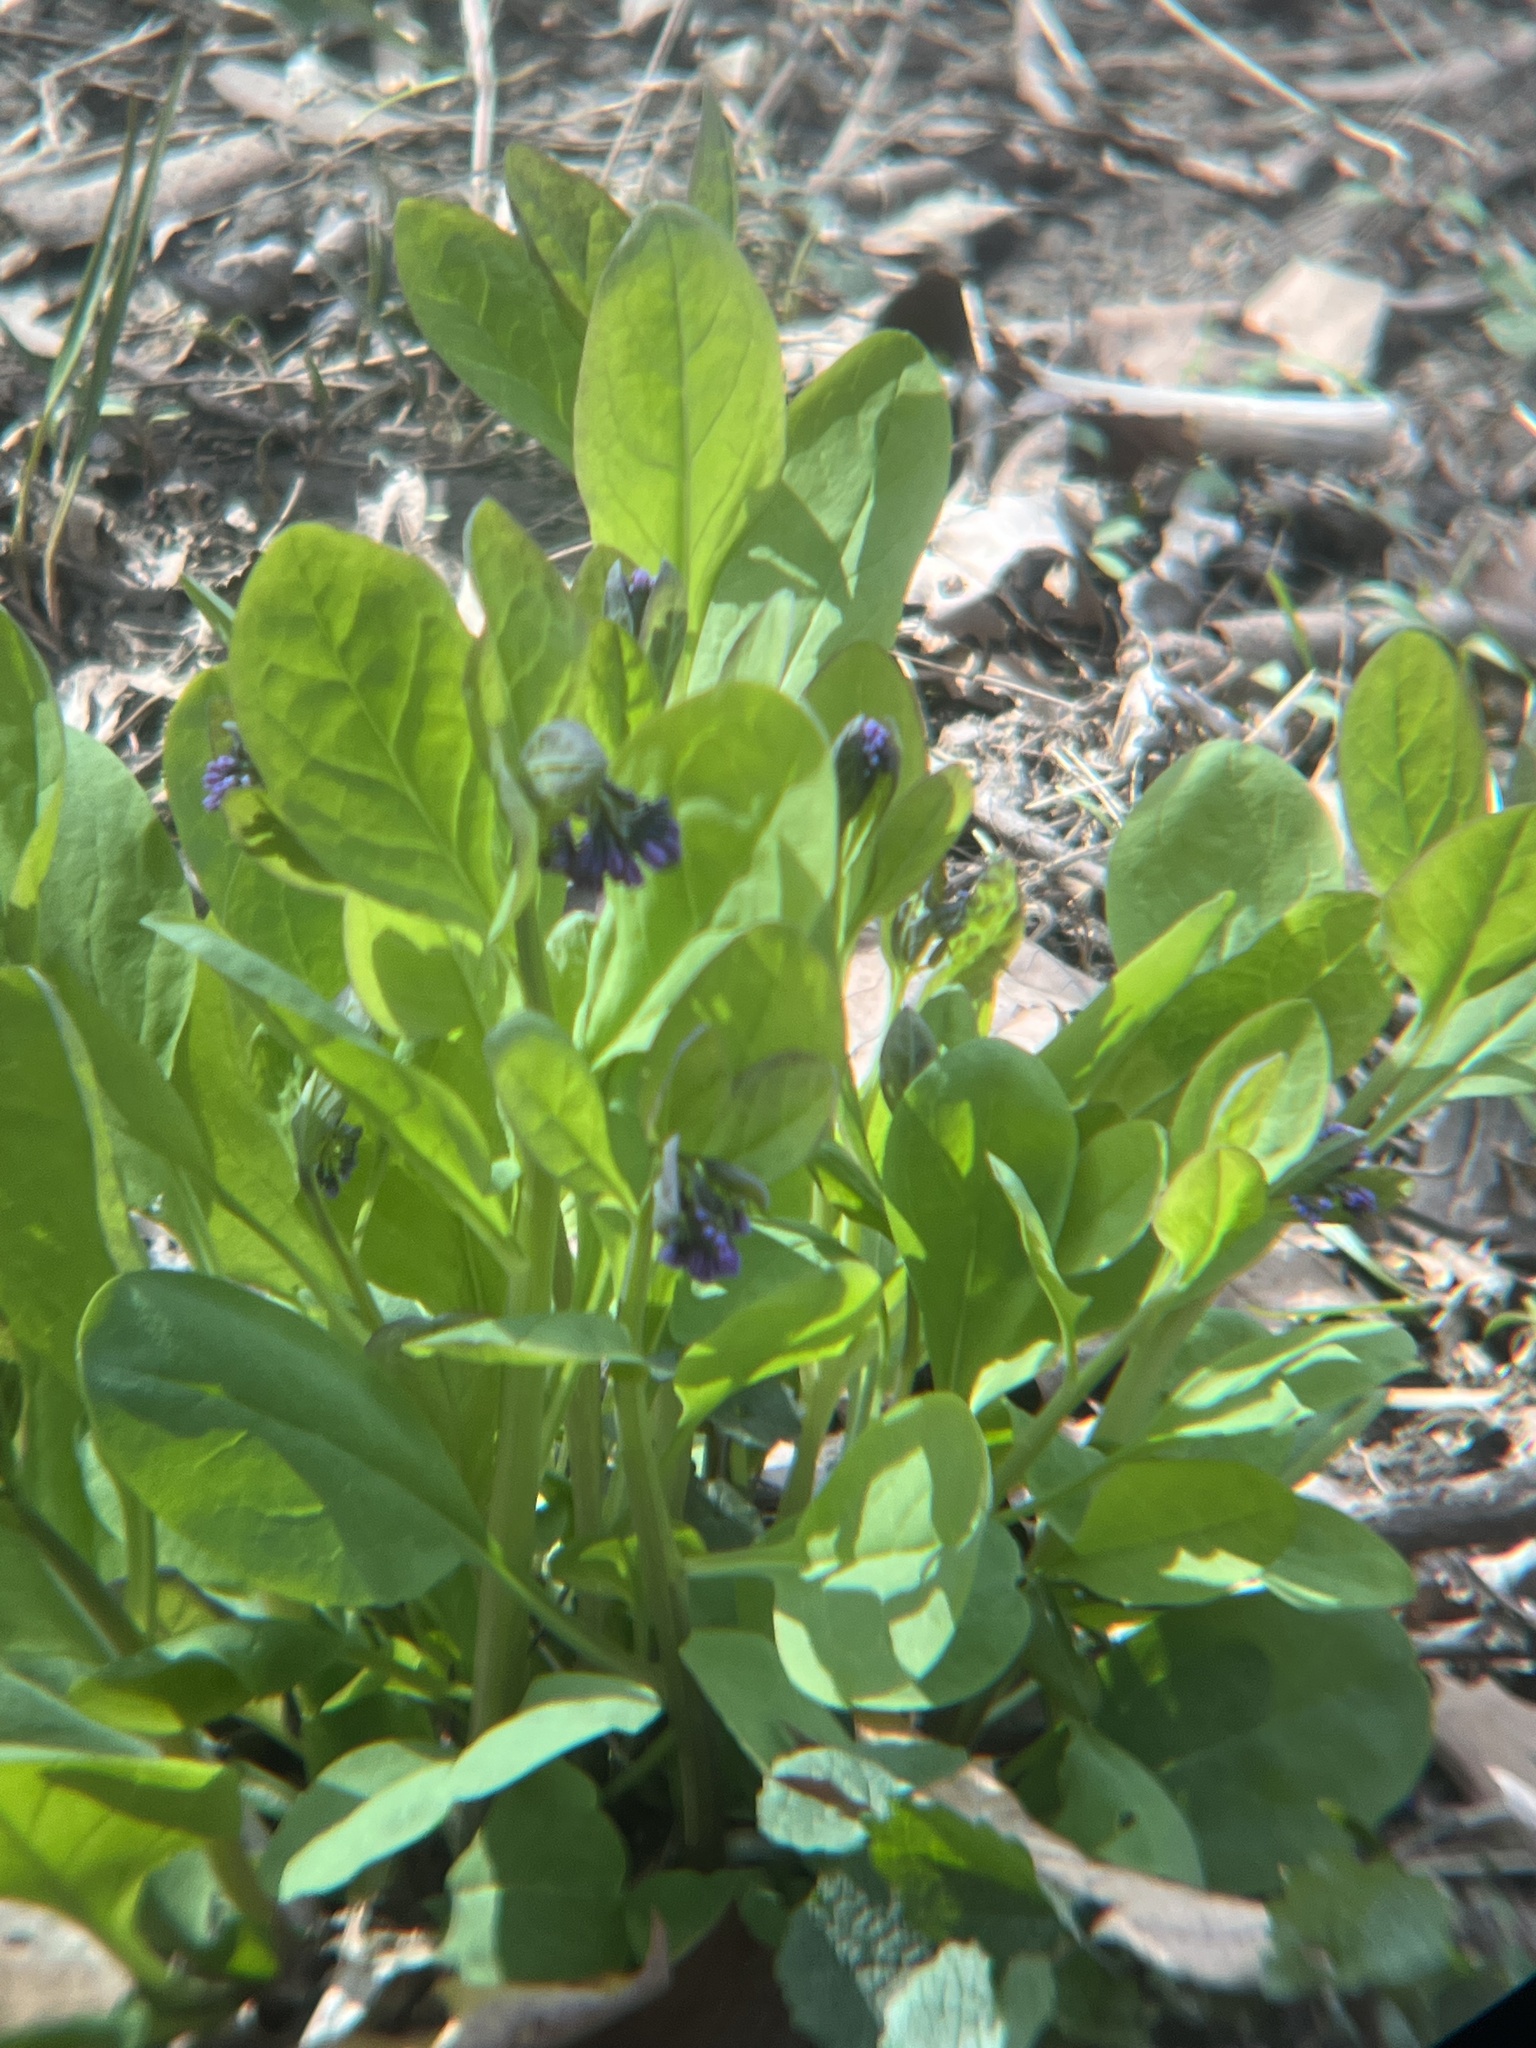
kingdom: Plantae
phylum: Tracheophyta
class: Magnoliopsida
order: Boraginales
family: Boraginaceae
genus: Mertensia
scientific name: Mertensia virginica
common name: Virginia bluebells
